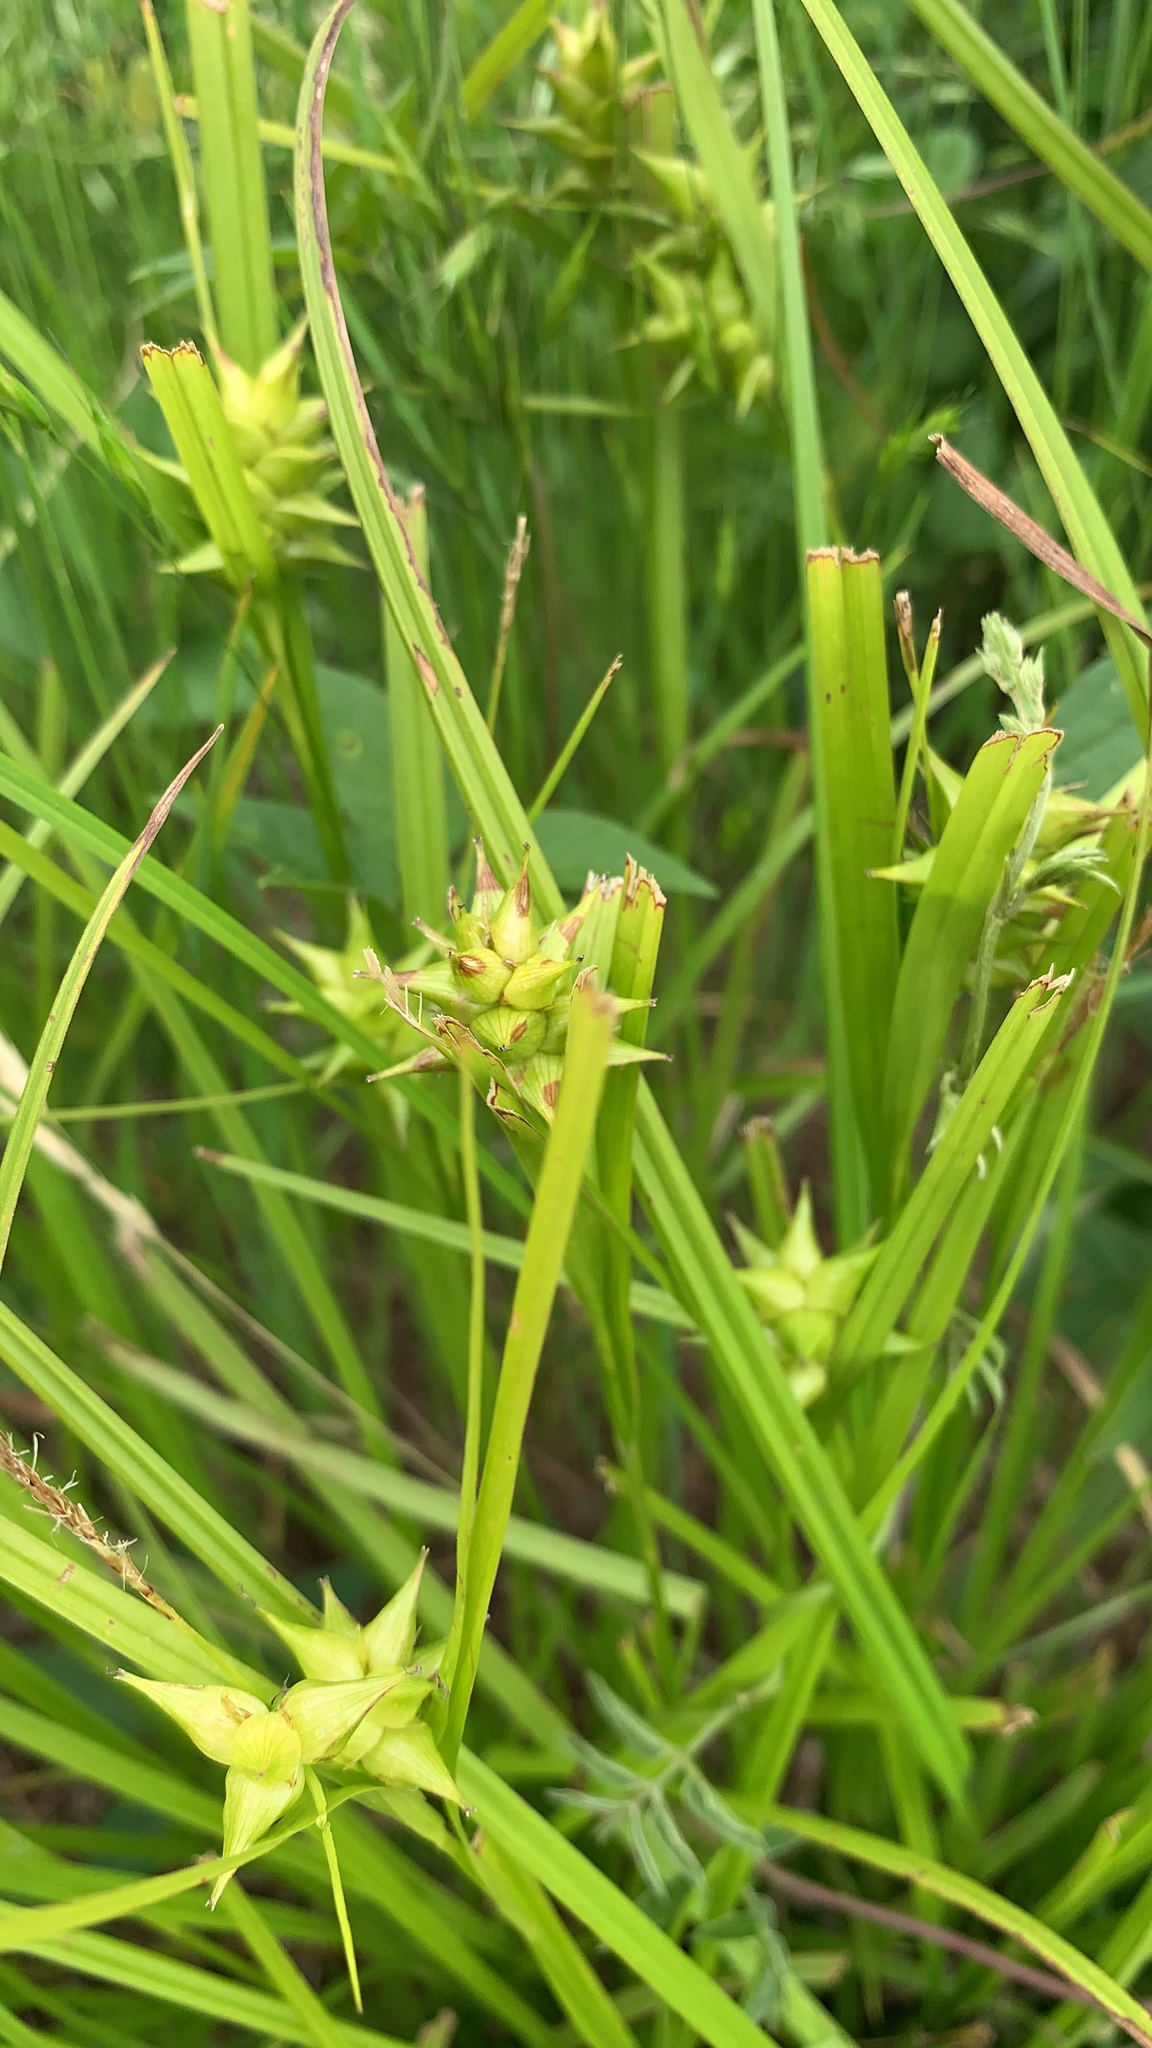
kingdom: Plantae
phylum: Tracheophyta
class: Liliopsida
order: Poales
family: Cyperaceae
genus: Carex
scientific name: Carex intumescens
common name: Greater bladder sedge
